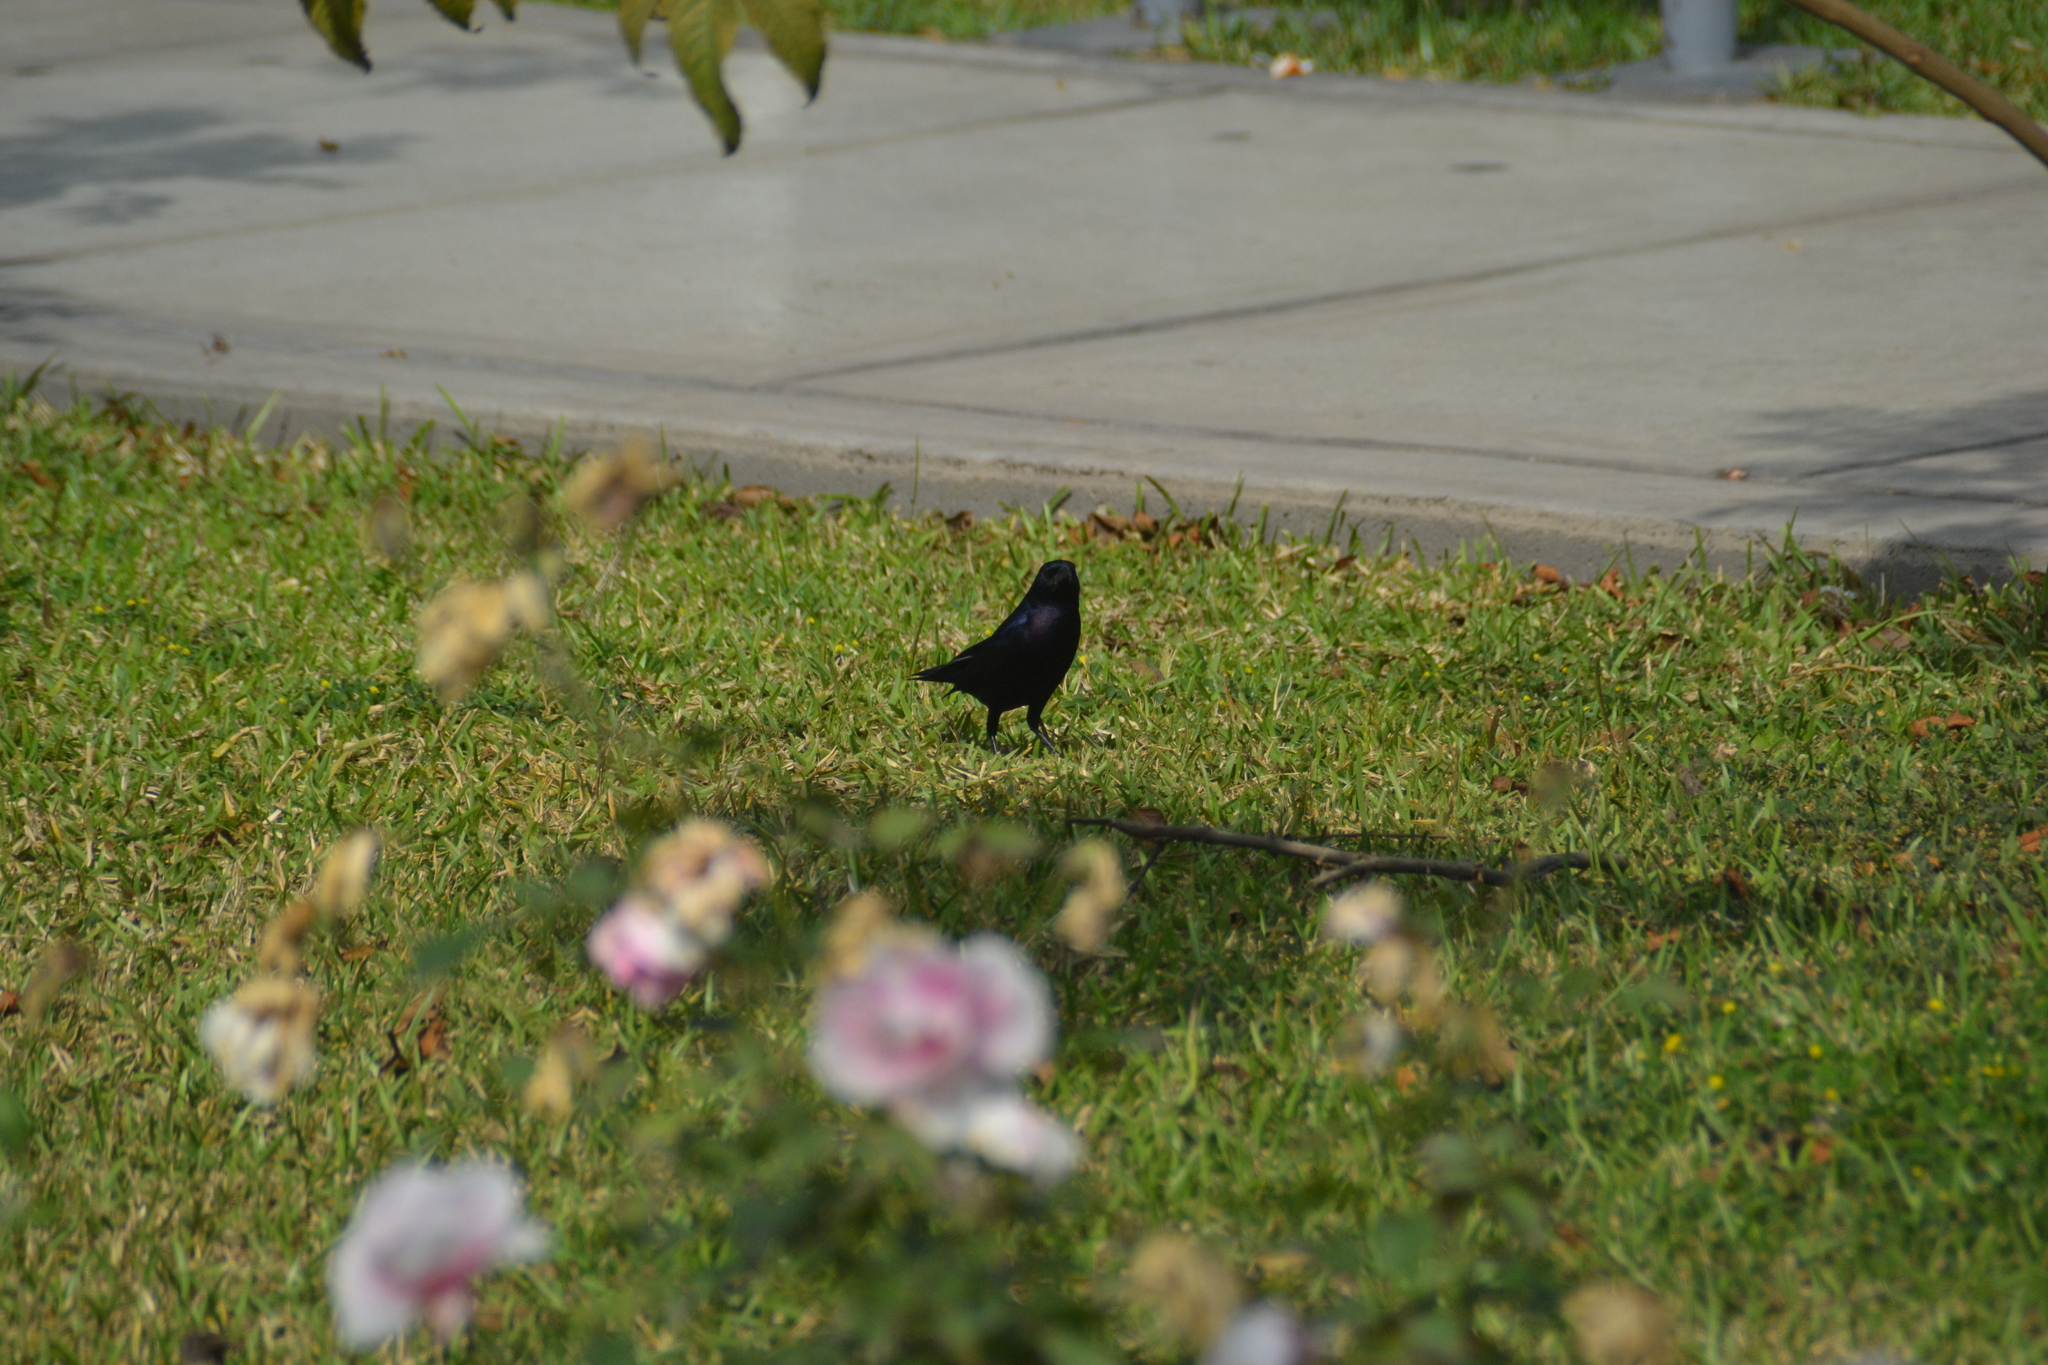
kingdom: Animalia
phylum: Chordata
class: Aves
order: Passeriformes
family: Icteridae
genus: Molothrus
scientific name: Molothrus bonariensis
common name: Shiny cowbird
